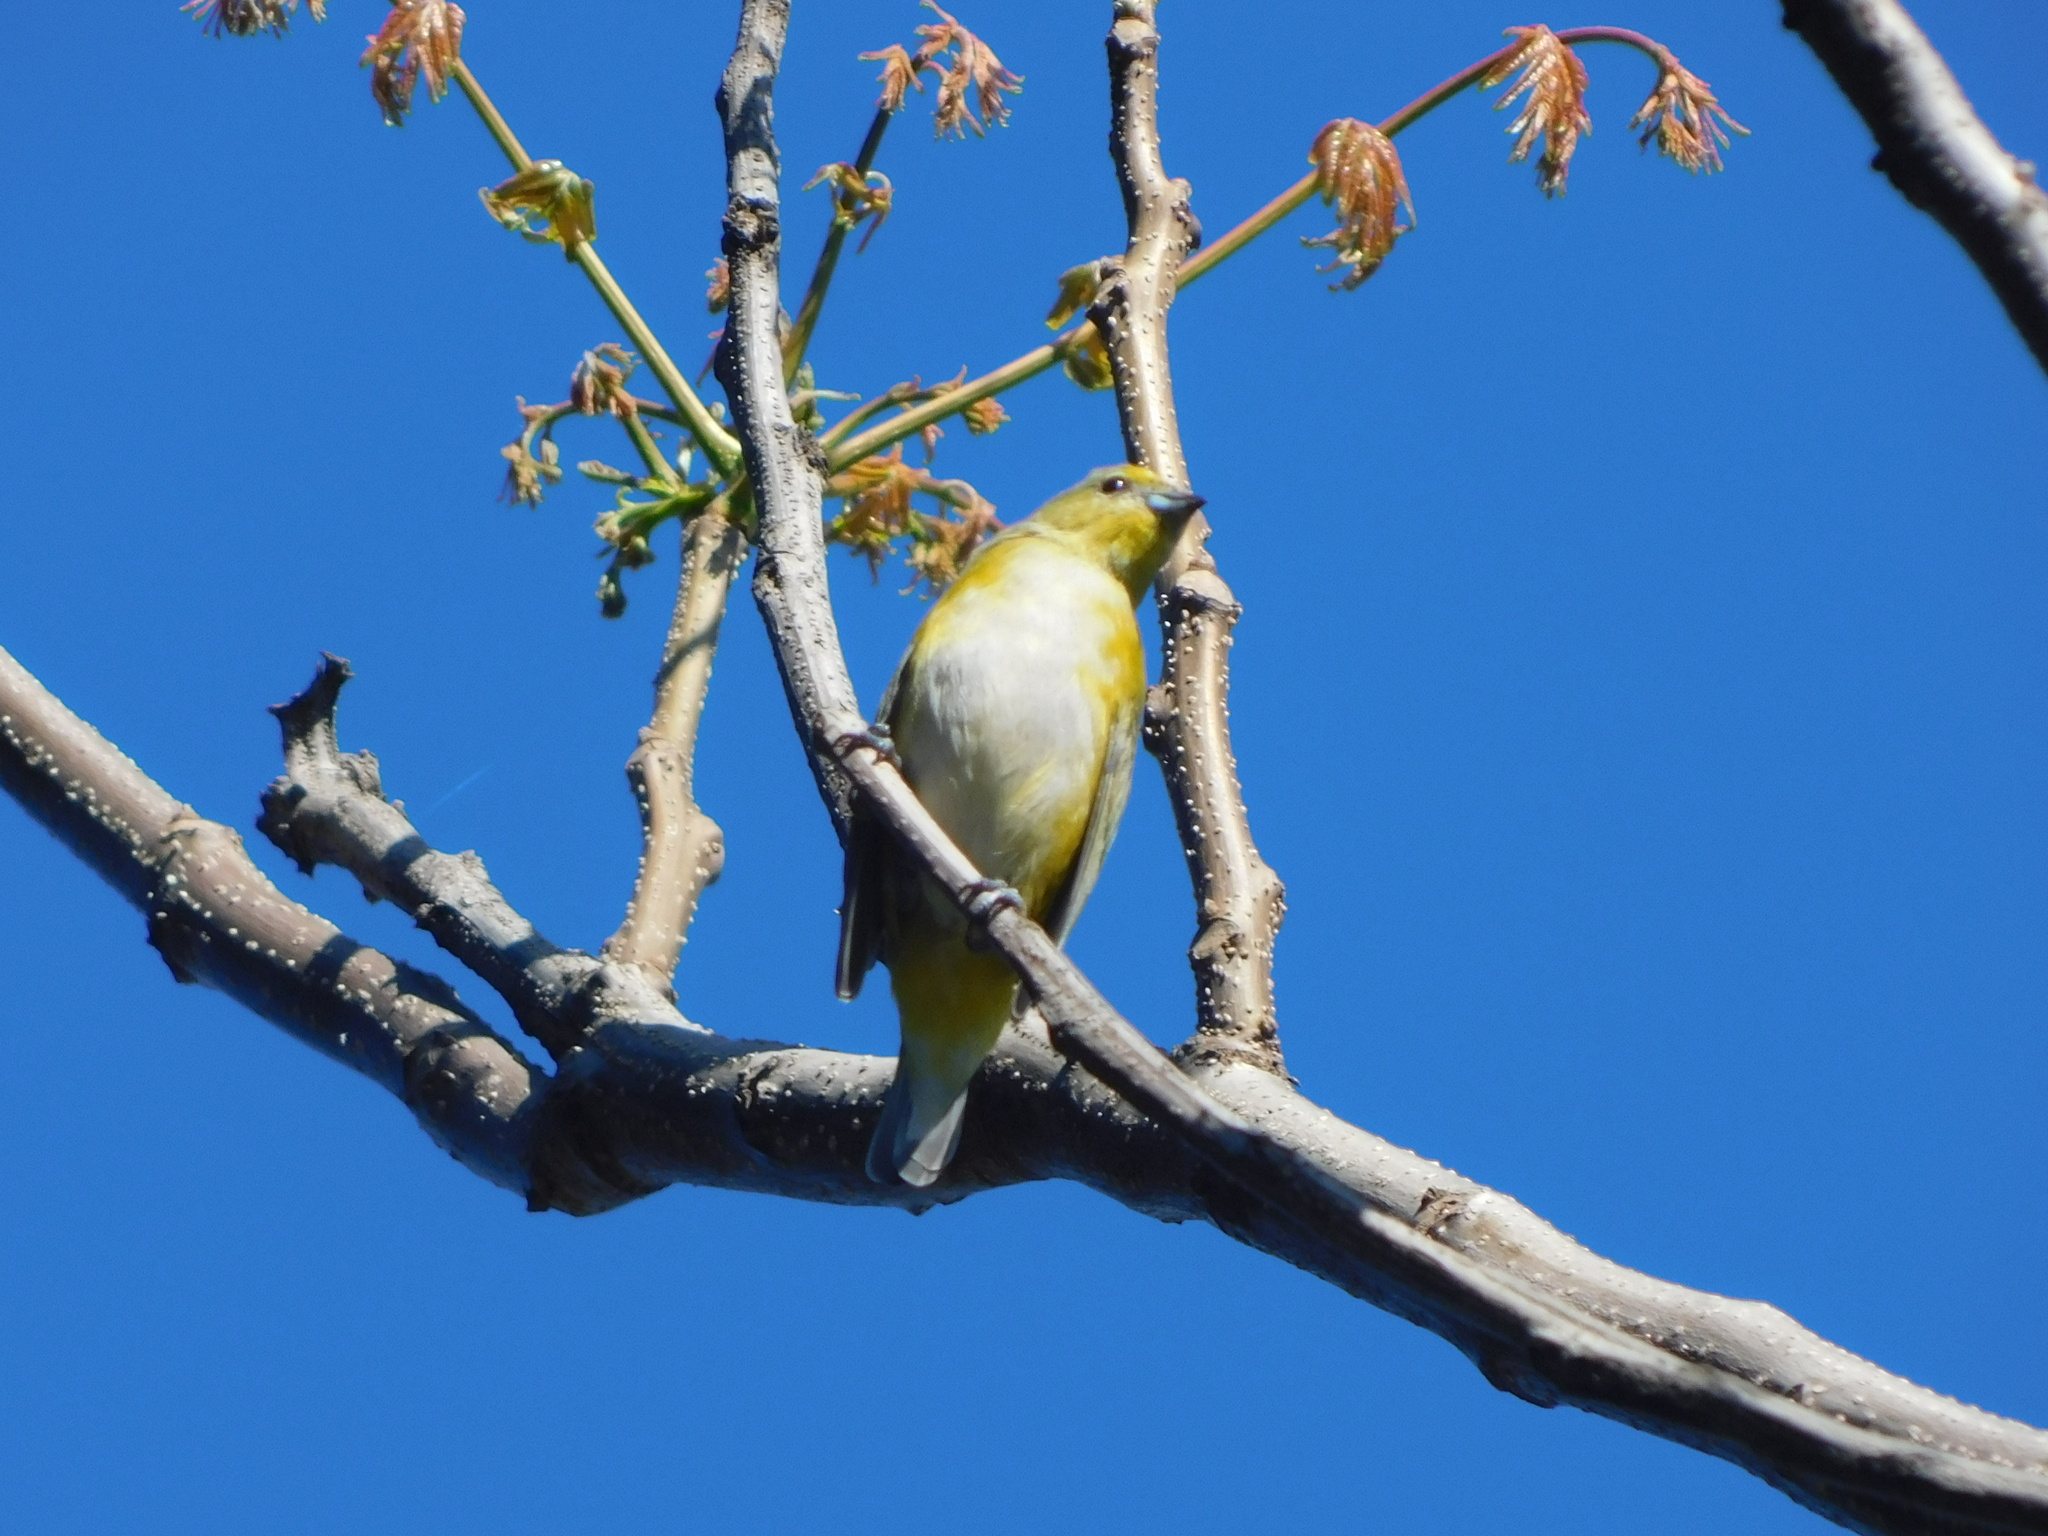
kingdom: Animalia
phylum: Chordata
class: Aves
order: Passeriformes
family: Fringillidae
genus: Euphonia
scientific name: Euphonia chlorotica
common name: Purple-throated euphonia
